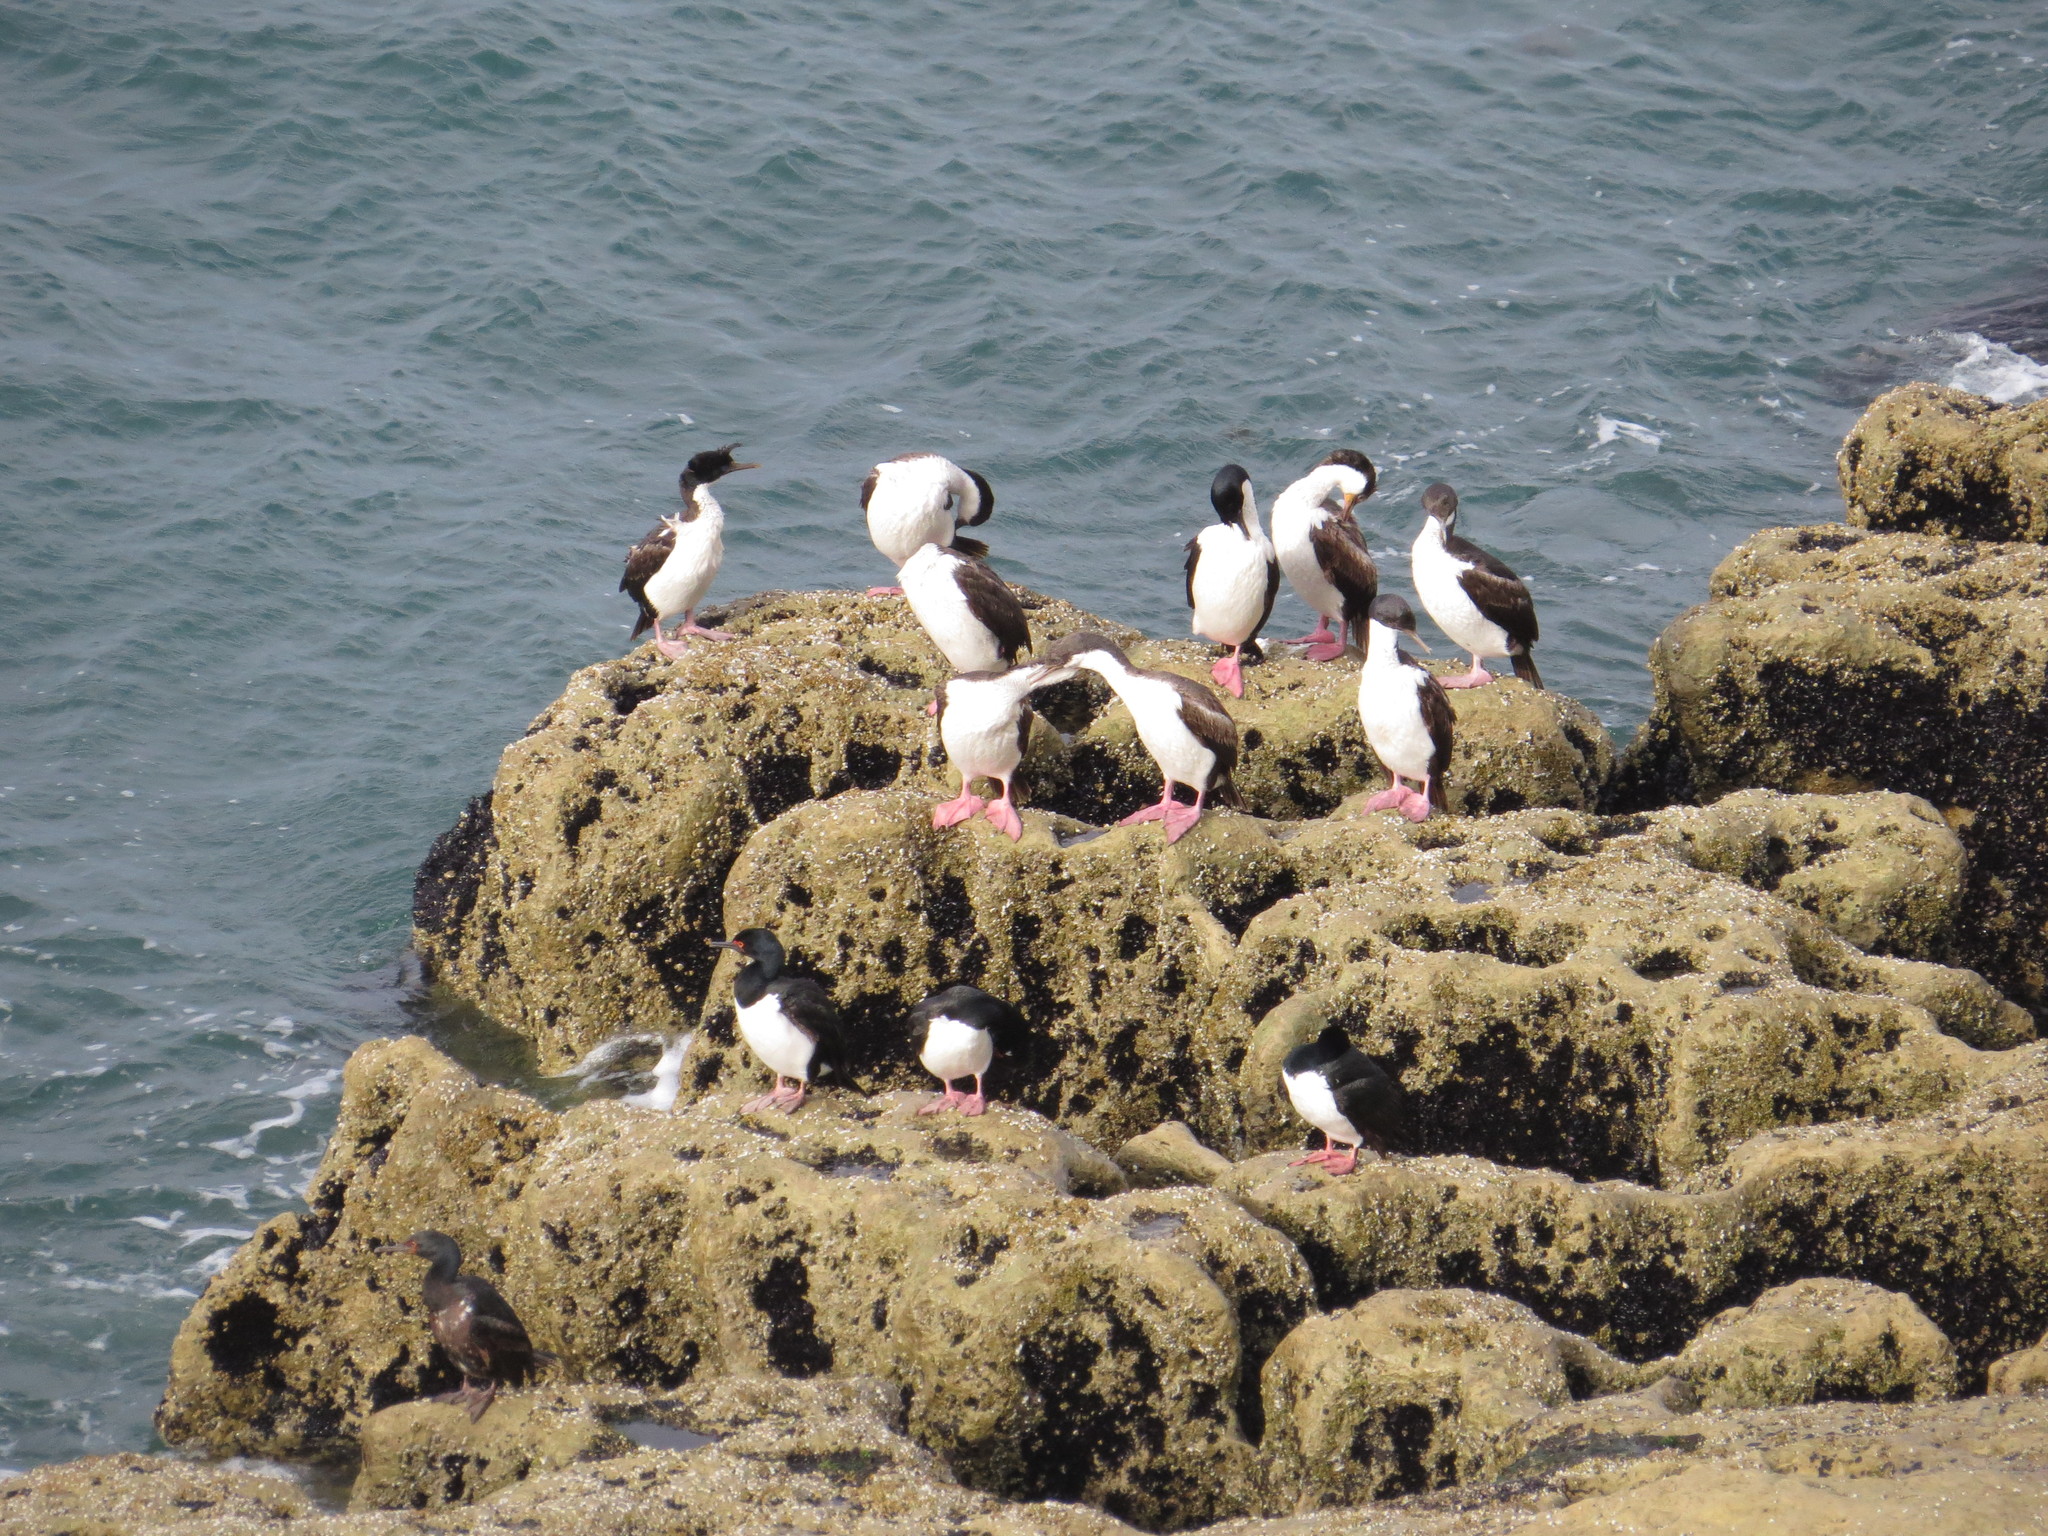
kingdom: Animalia
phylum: Chordata
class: Aves
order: Suliformes
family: Phalacrocoracidae
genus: Leucocarbo
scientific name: Leucocarbo atriceps
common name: Imperial shag
